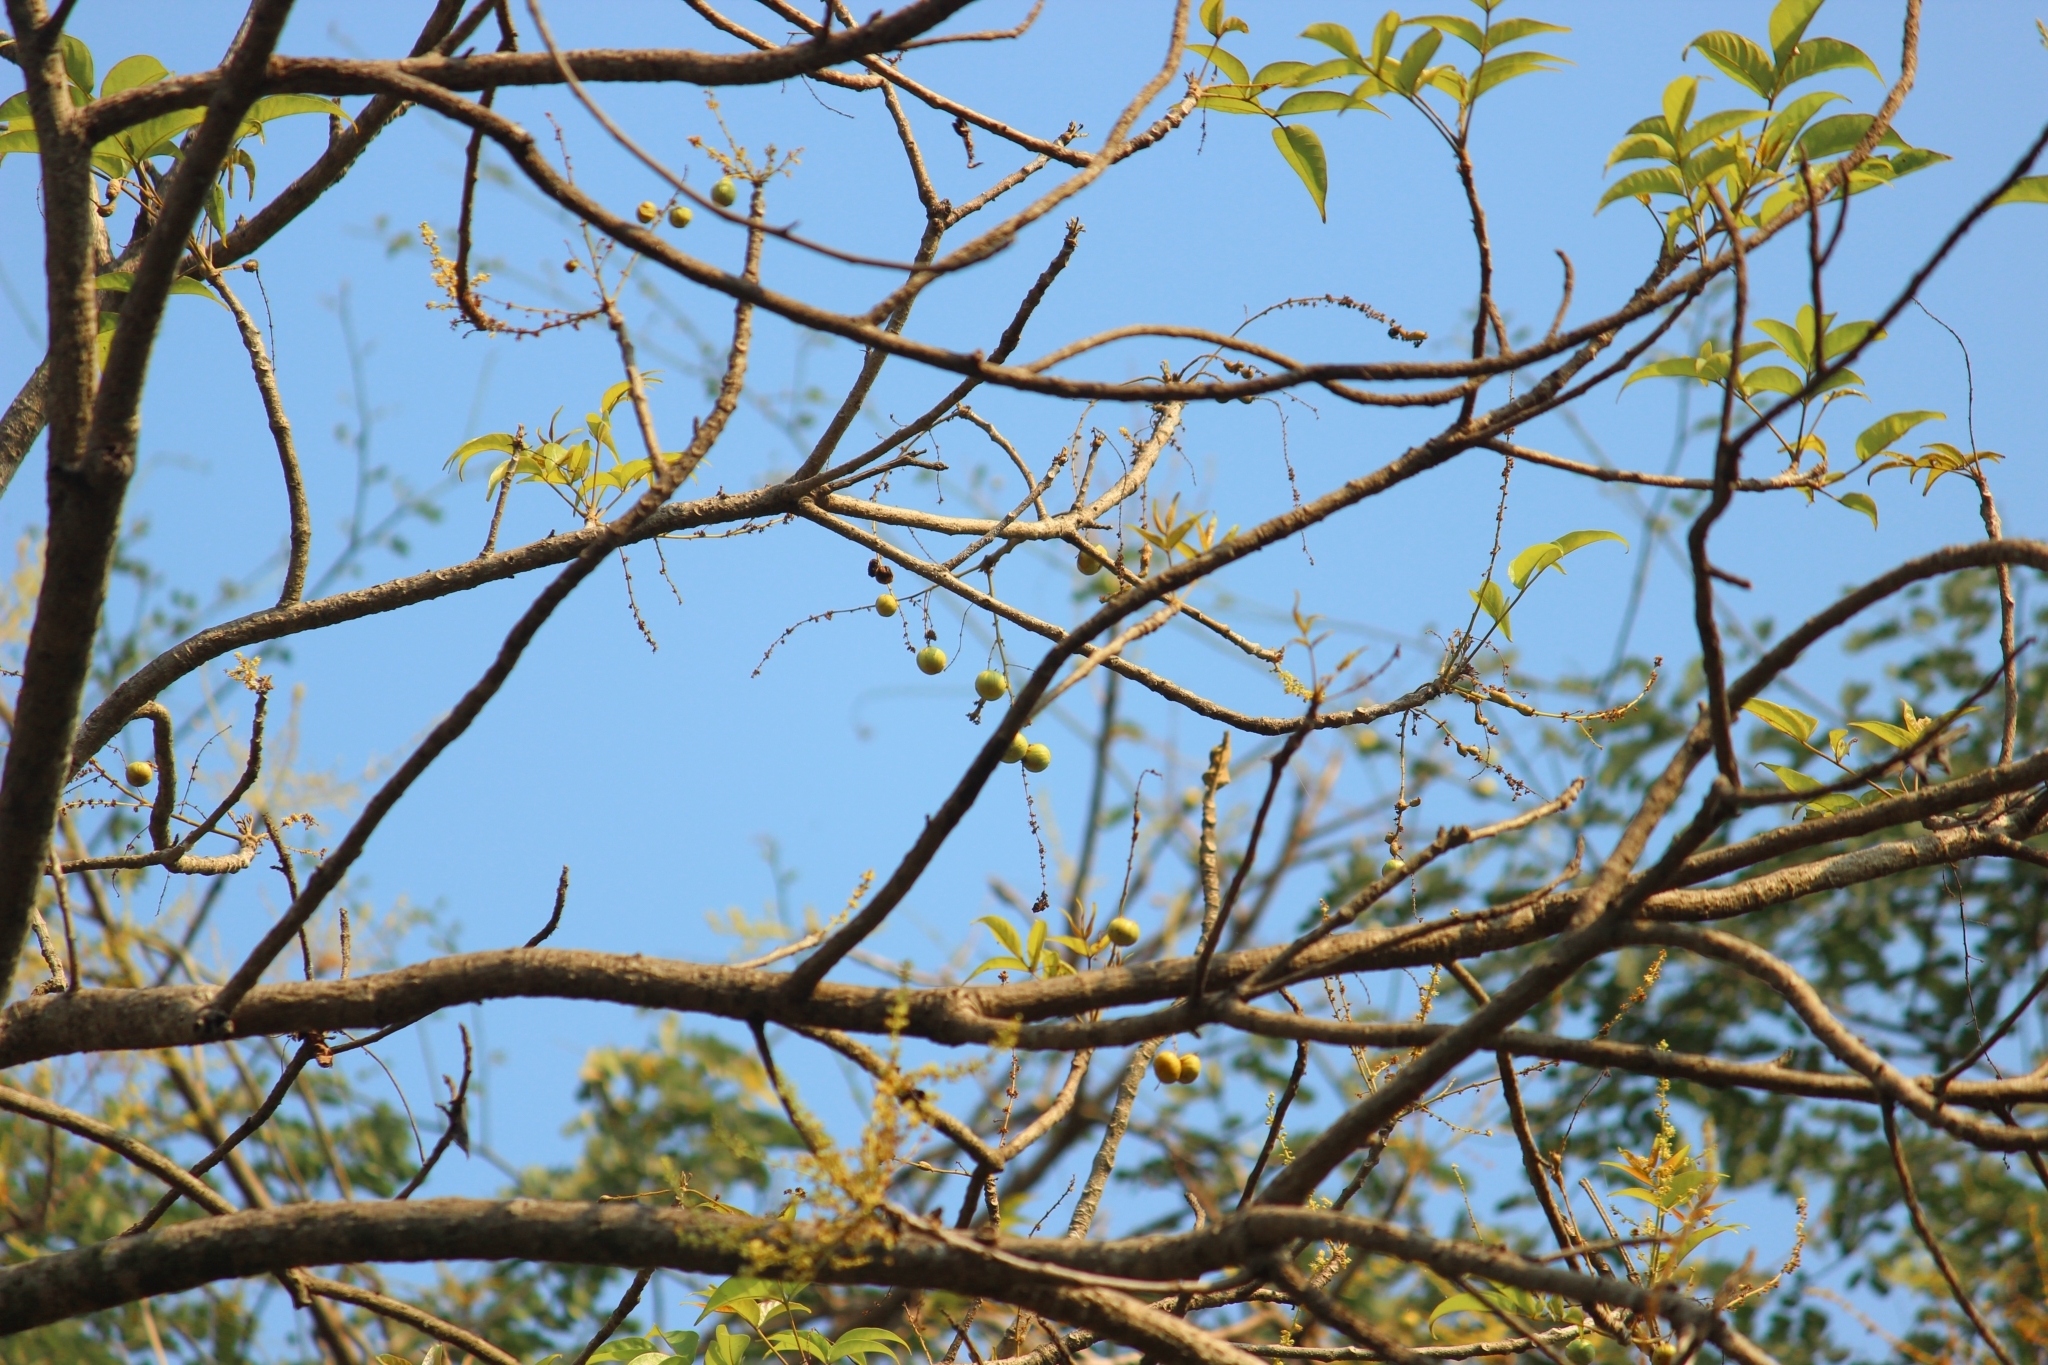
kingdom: Plantae
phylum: Tracheophyta
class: Magnoliopsida
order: Sapindales
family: Anacardiaceae
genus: Lannea
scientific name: Lannea coromandelica
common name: Indian ash tree
